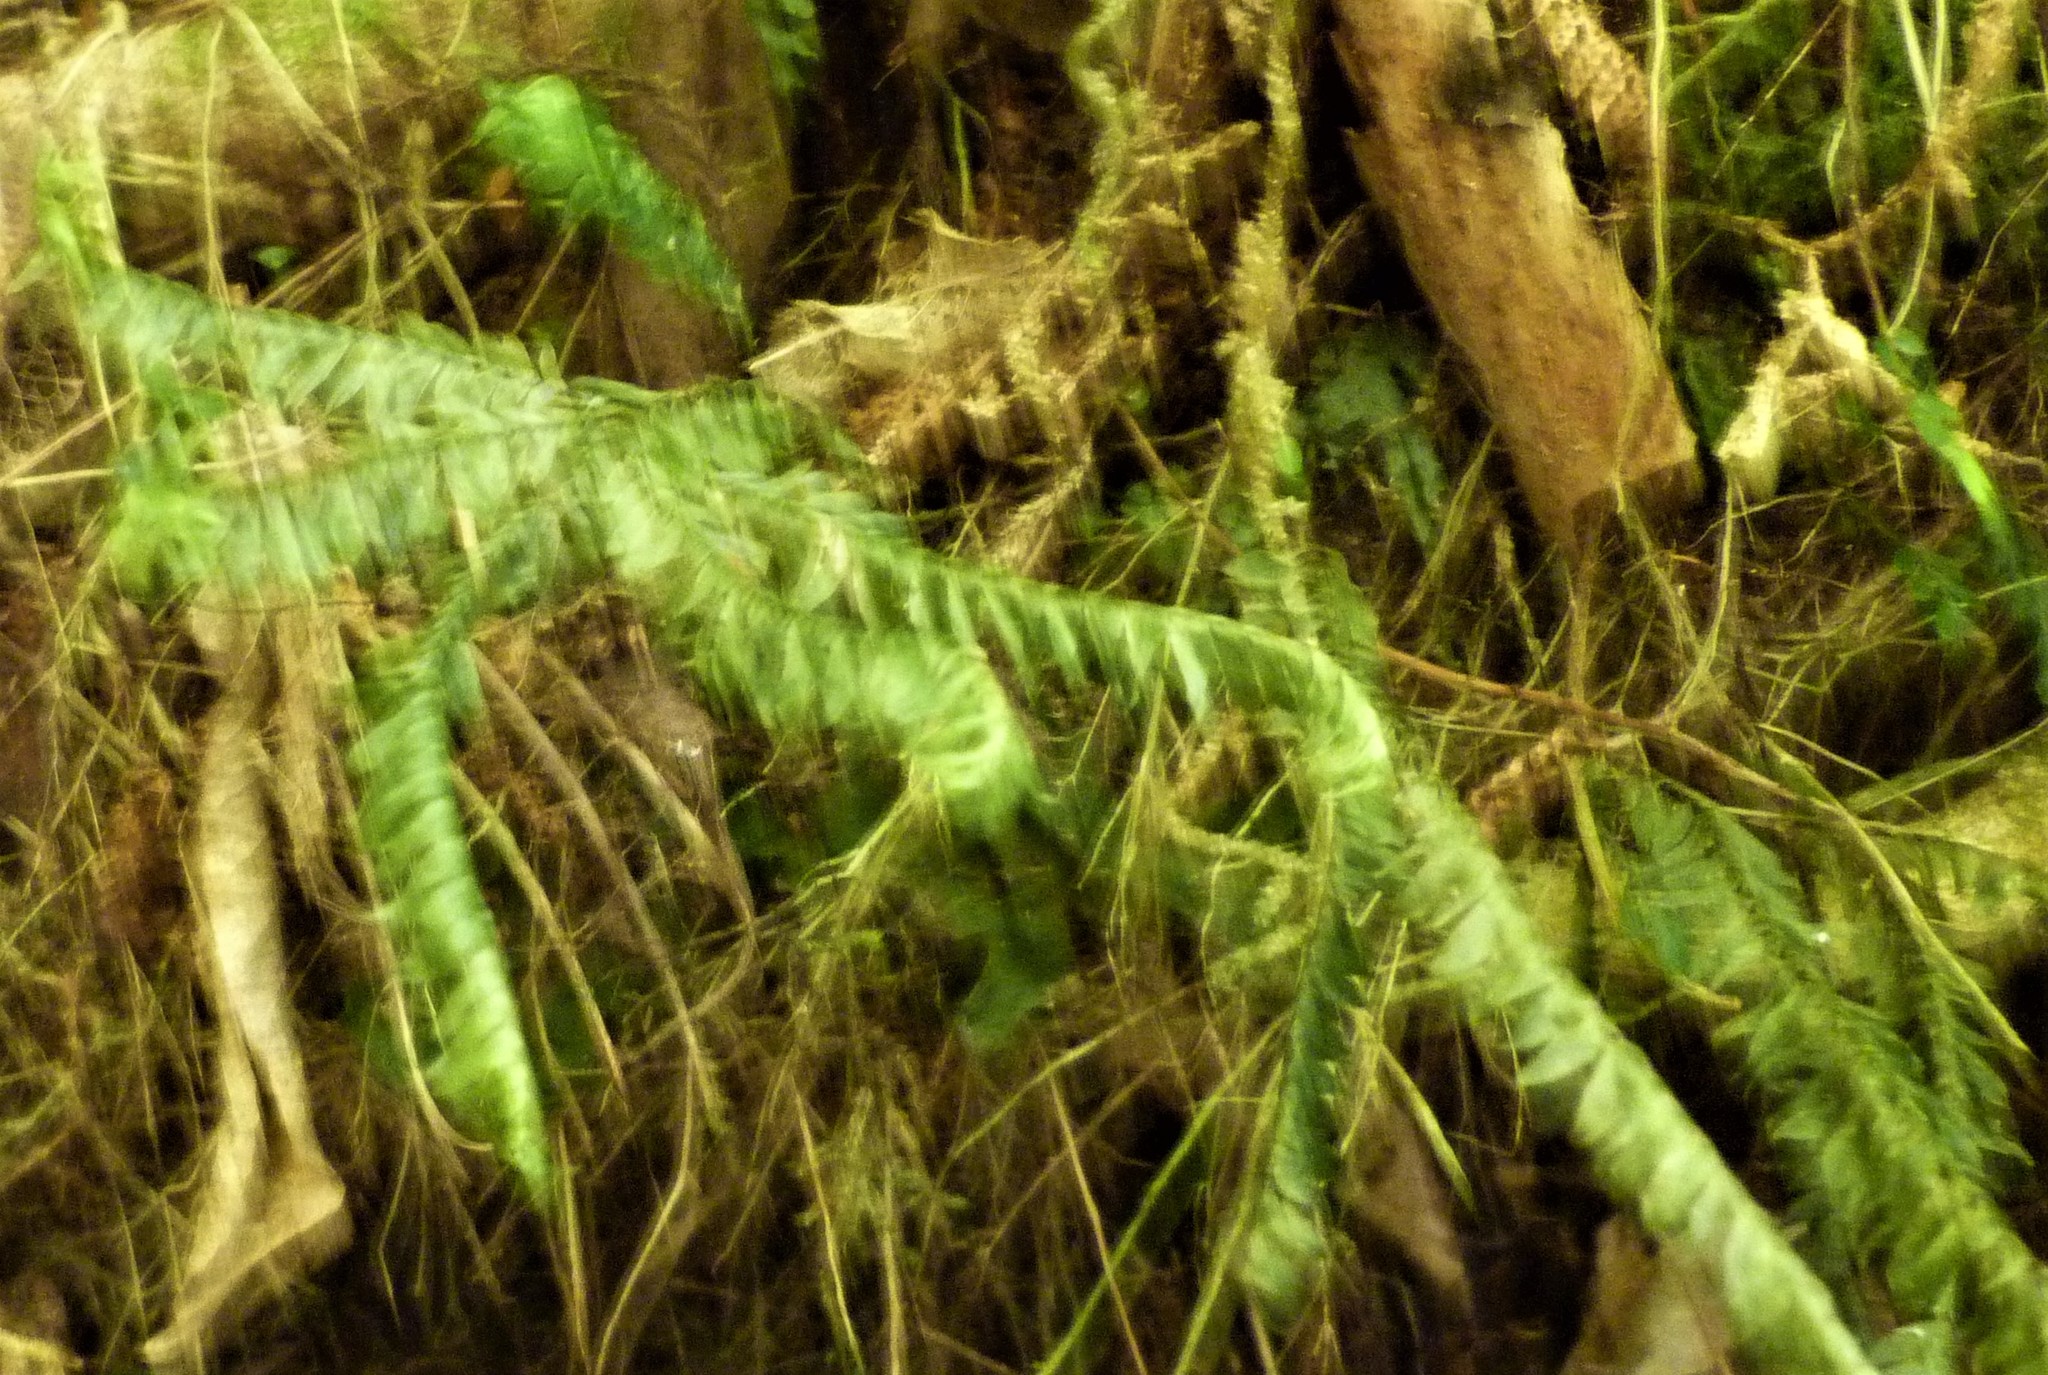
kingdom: Plantae
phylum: Bryophyta
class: Bryopsida
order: Hypopterygiales
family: Hypopterygiaceae
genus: Cyathophorum
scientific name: Cyathophorum bulbosum
